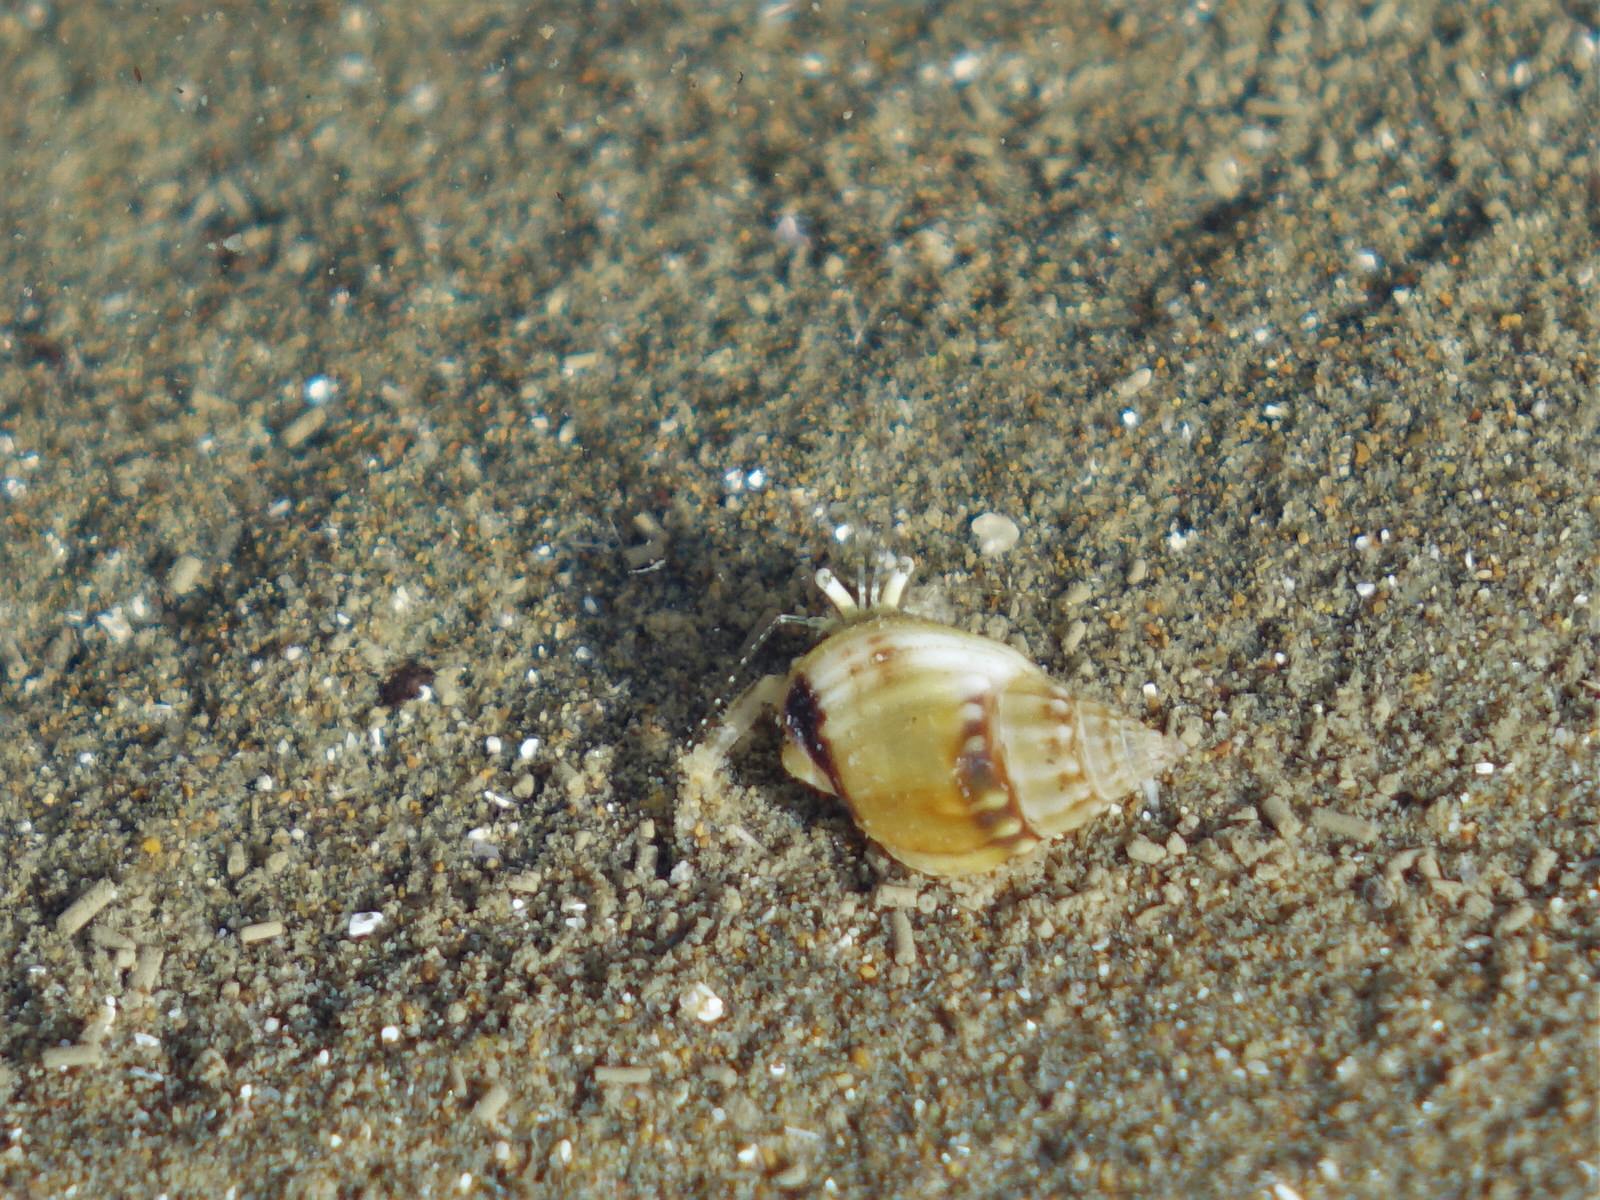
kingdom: Animalia
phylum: Arthropoda
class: Malacostraca
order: Decapoda
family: Paguridae
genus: Pagurus
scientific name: Pagurus novizealandiae
